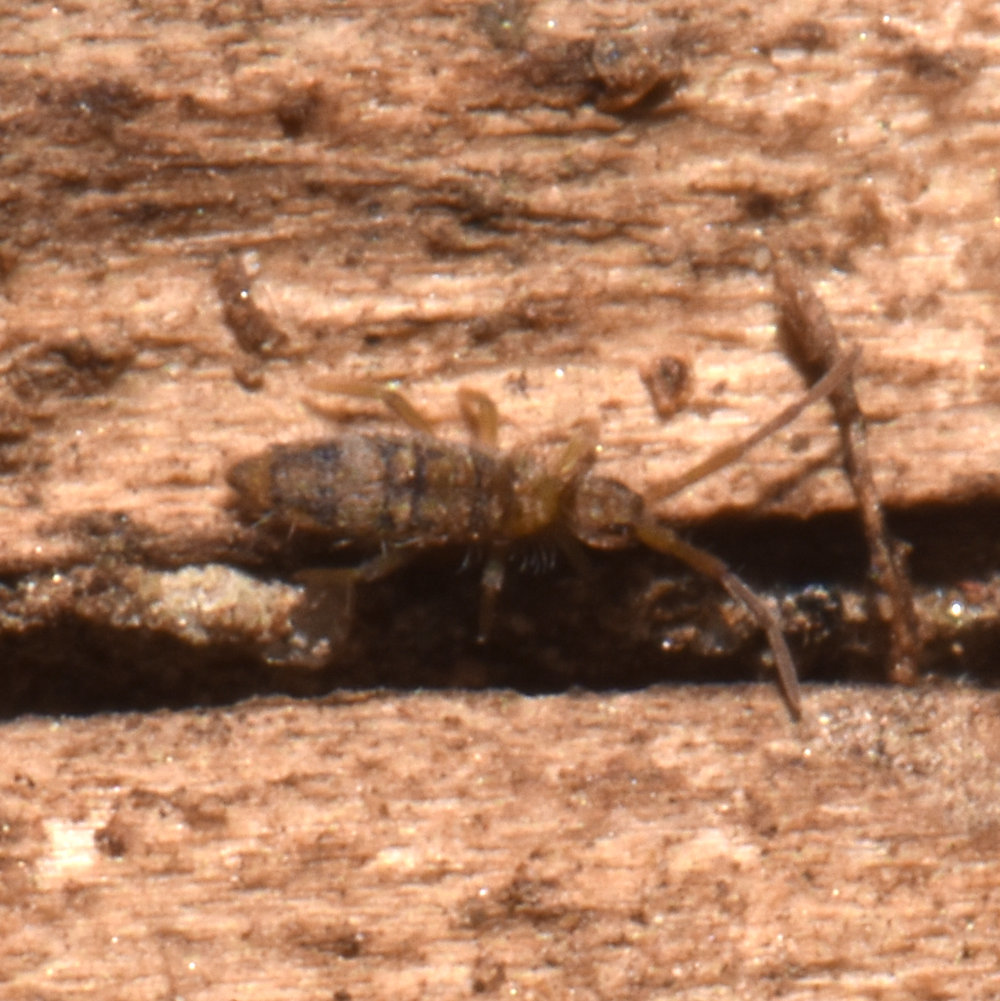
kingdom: Animalia
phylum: Arthropoda
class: Collembola
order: Entomobryomorpha
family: Entomobryidae
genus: Entomobrya
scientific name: Entomobrya nivalis
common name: Cosmopolitan springtail
